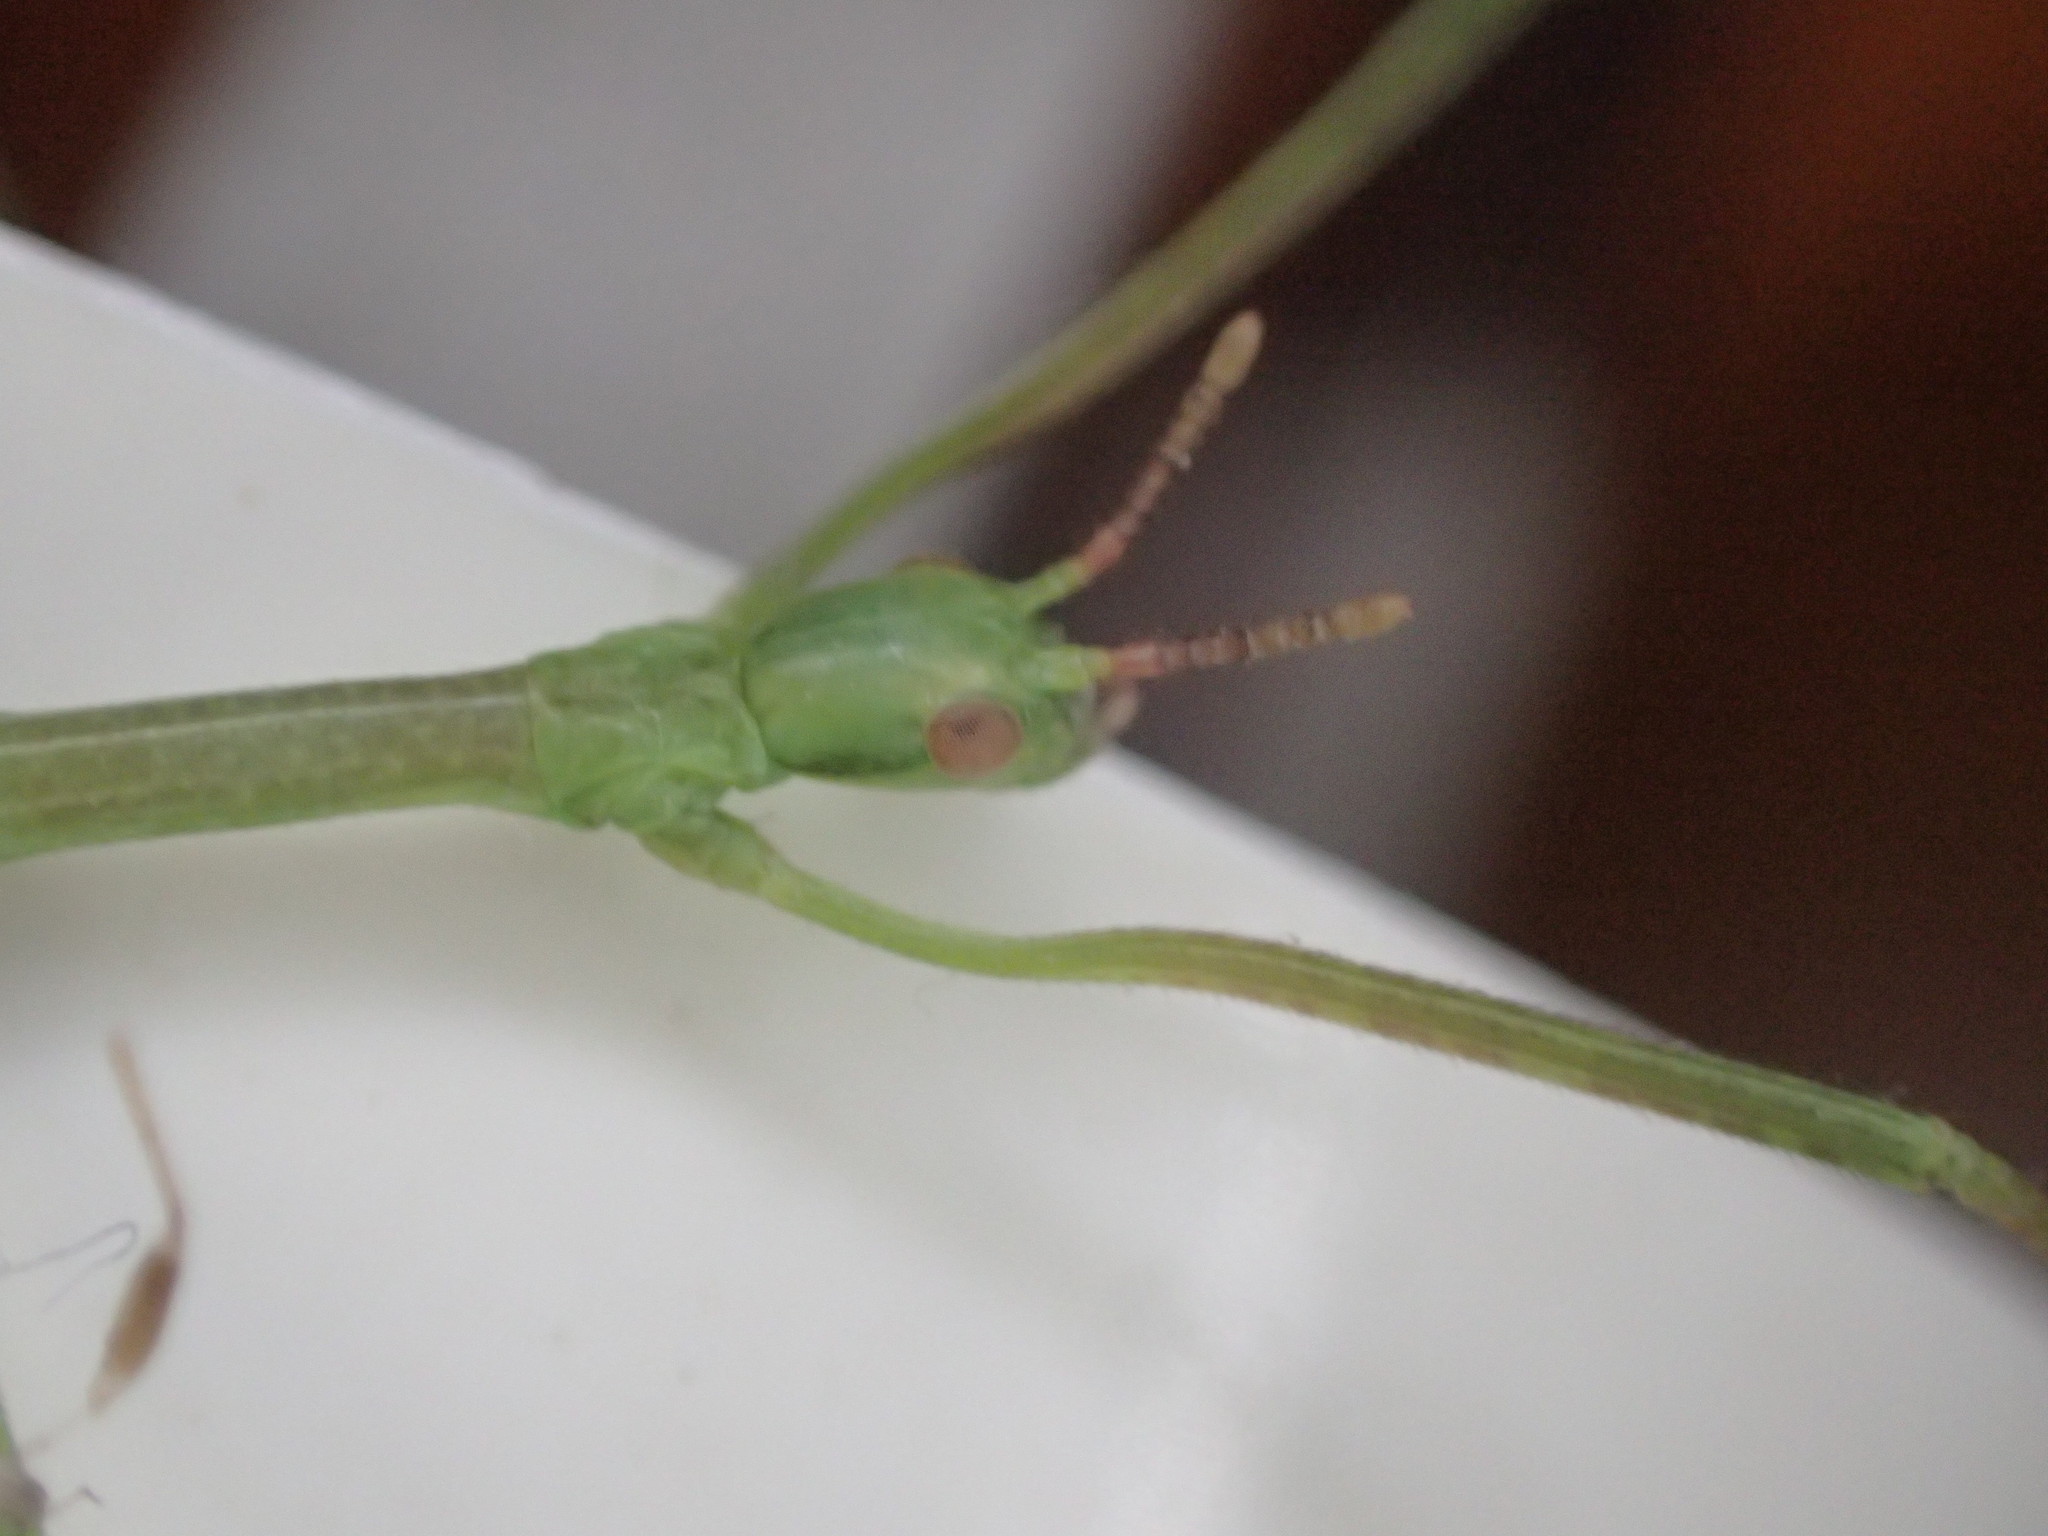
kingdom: Animalia
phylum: Arthropoda
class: Insecta
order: Phasmida
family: Phasmatidae
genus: Ctenomorpha
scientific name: Ctenomorpha marginipennis
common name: Margined-winged stick-insect
